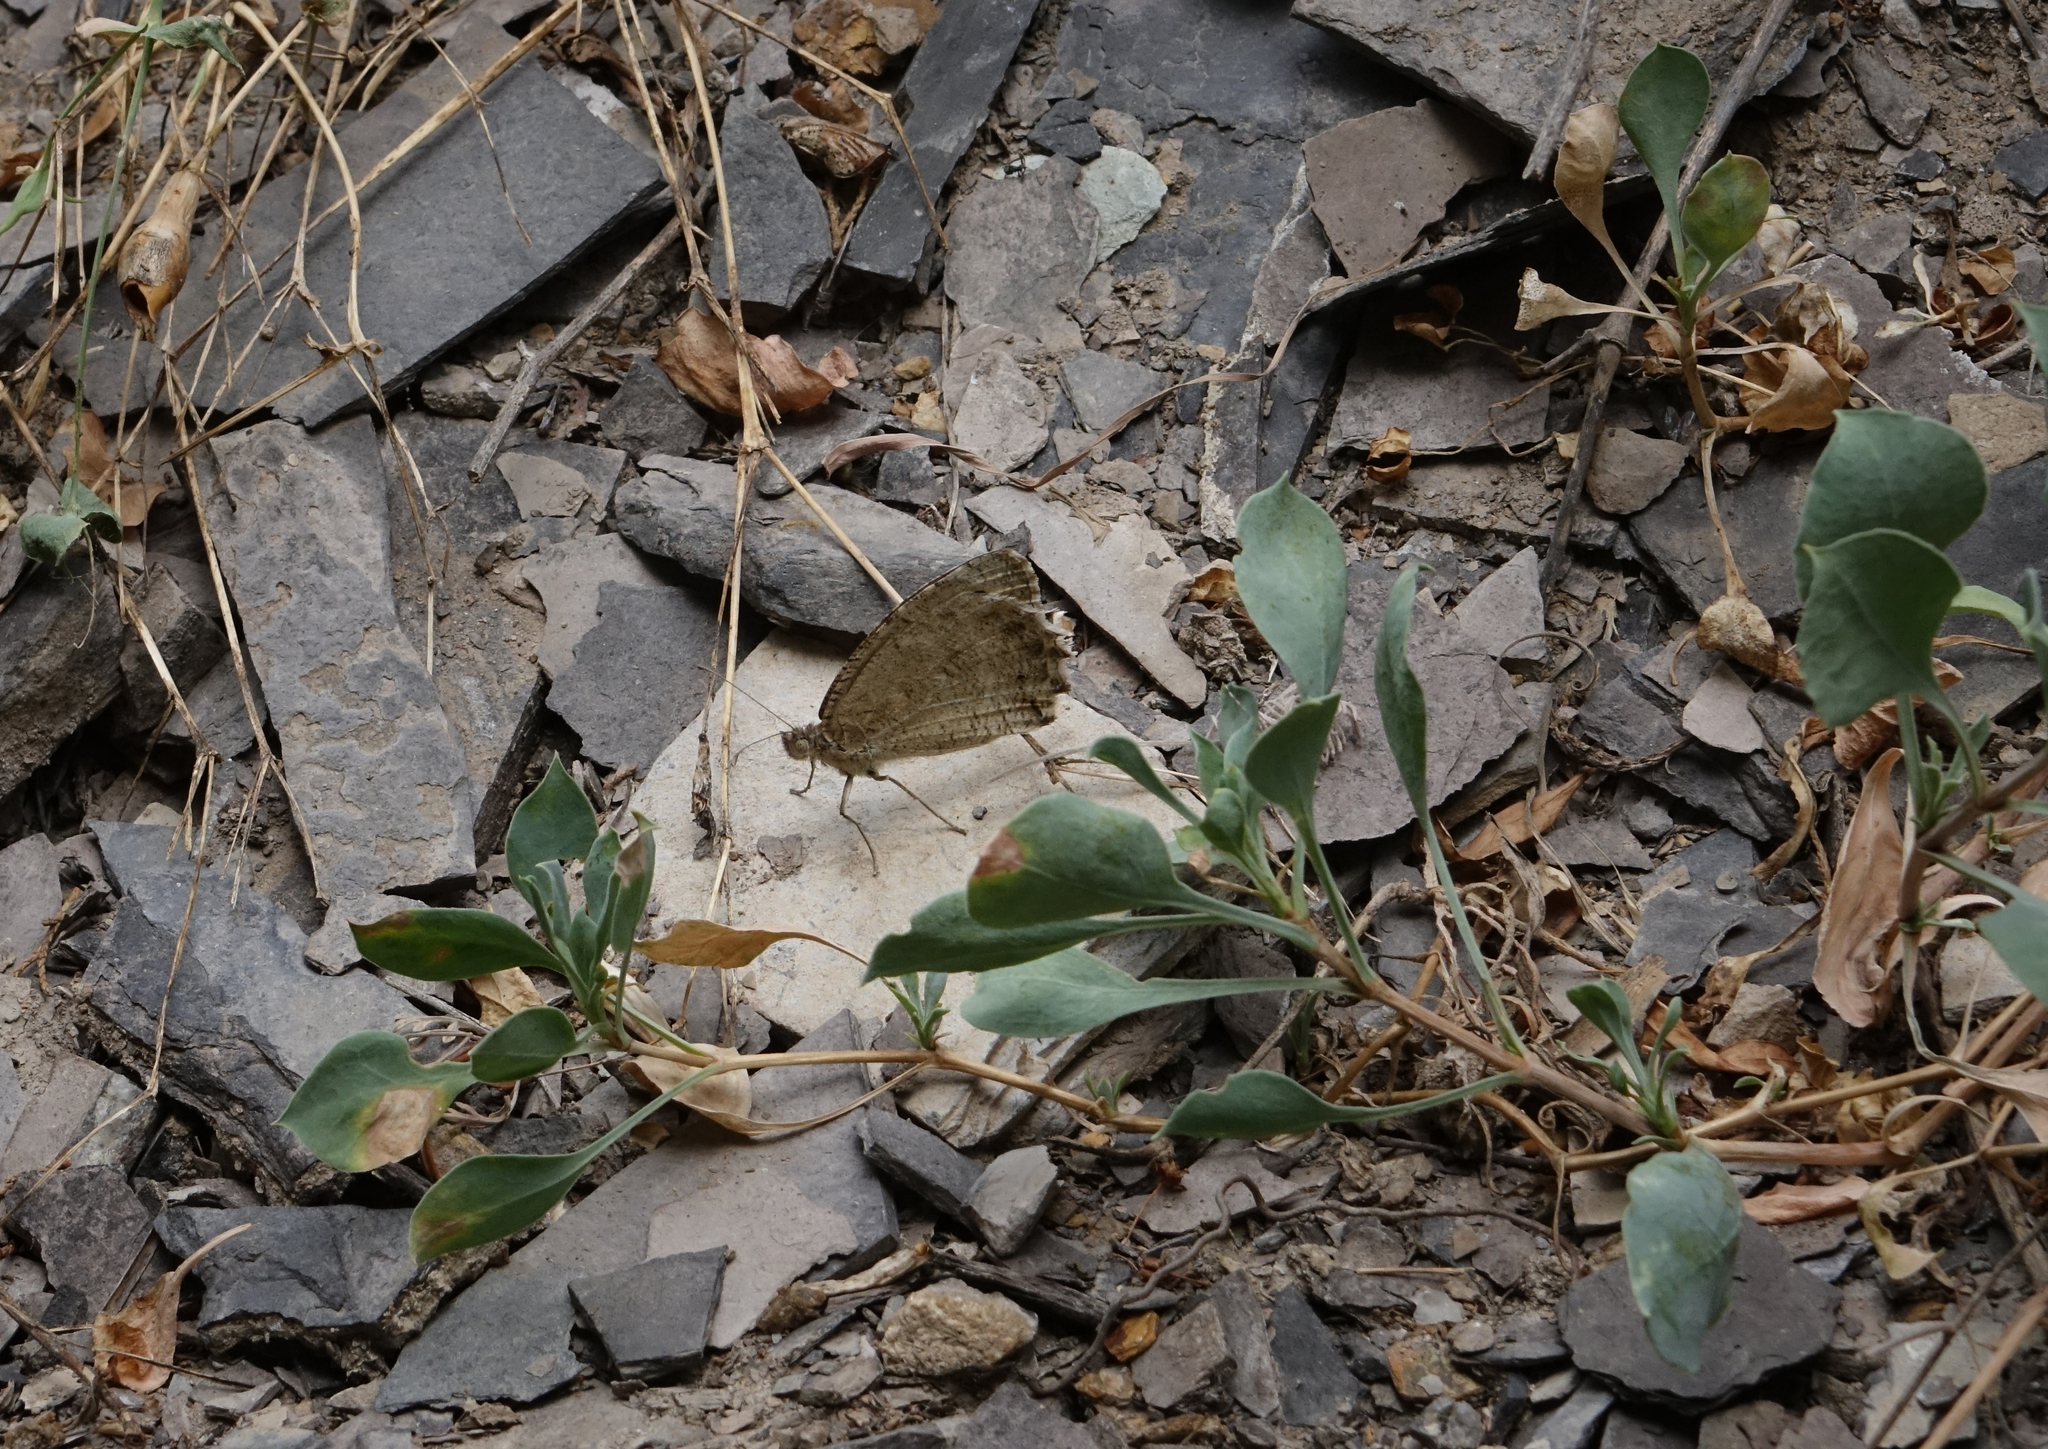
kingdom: Plantae
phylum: Tracheophyta
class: Magnoliopsida
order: Caryophyllales
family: Caryophyllaceae
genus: Silene
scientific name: Silene chlorifolia
